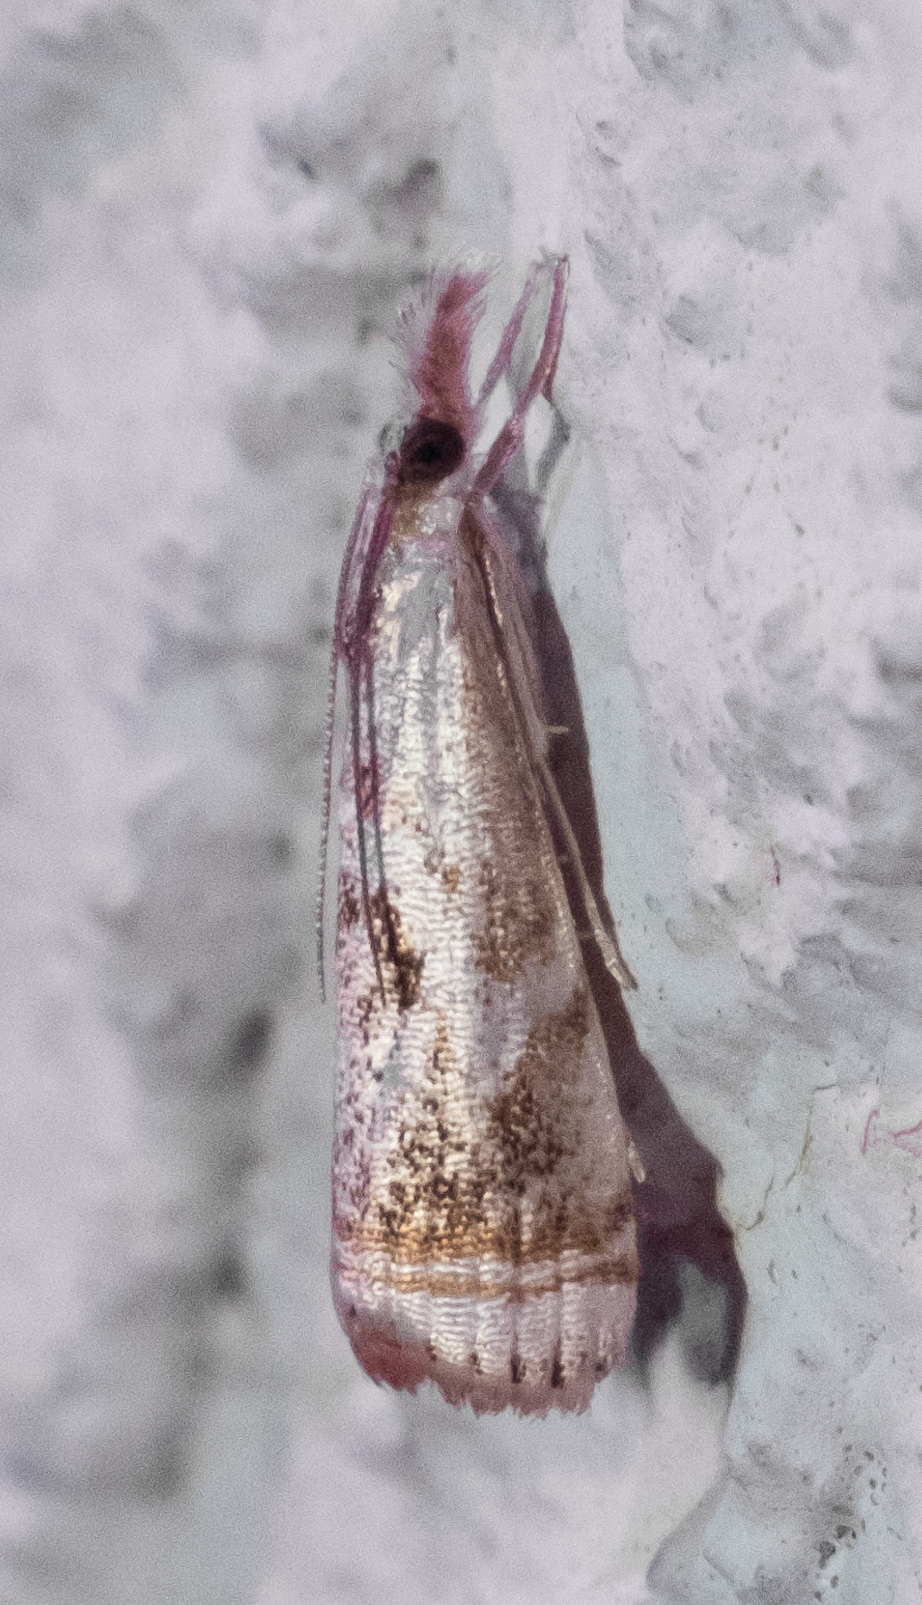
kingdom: Animalia
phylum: Arthropoda
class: Insecta
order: Lepidoptera
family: Crambidae
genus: Microcrambus
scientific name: Microcrambus elegans
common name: Elegant grass-veneer
